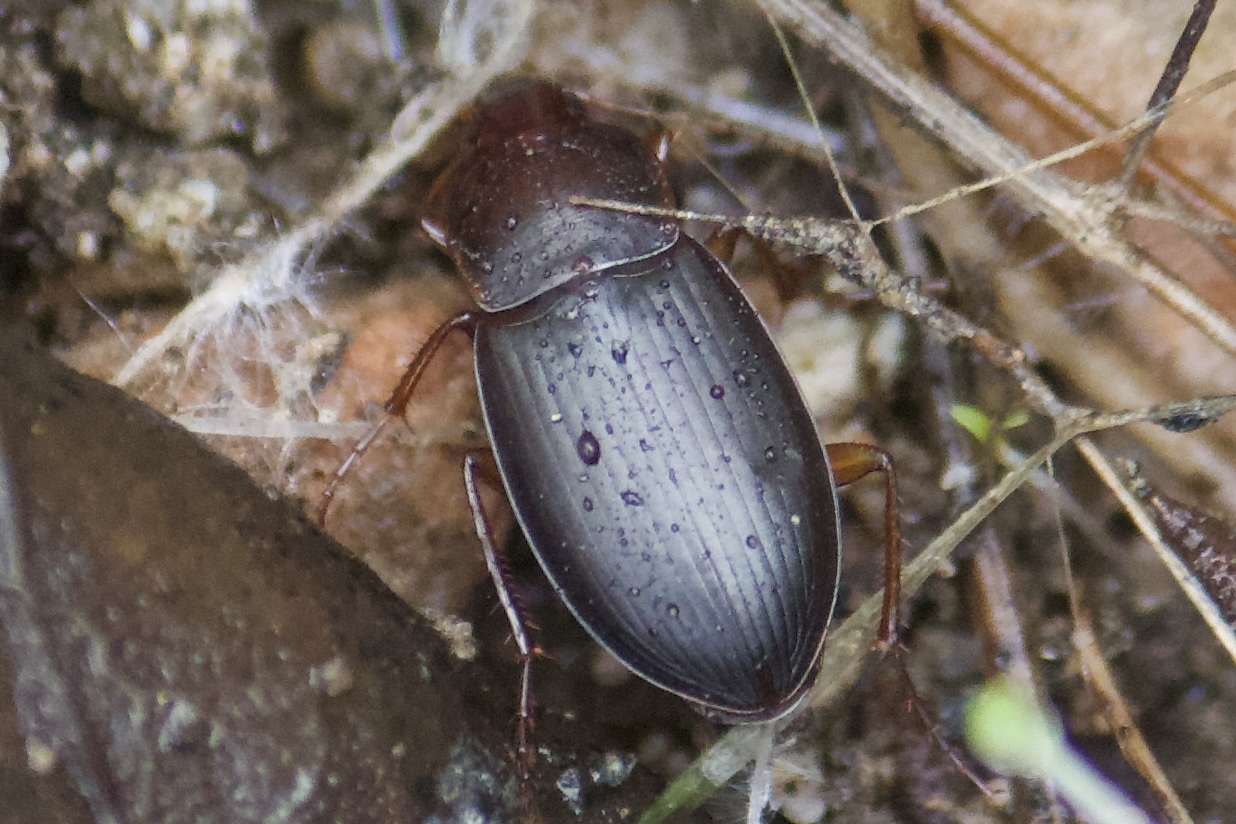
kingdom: Animalia
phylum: Arthropoda
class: Insecta
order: Coleoptera
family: Carabidae
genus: Calathus
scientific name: Calathus ruficollis
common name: Red-collared harp ground beetle
